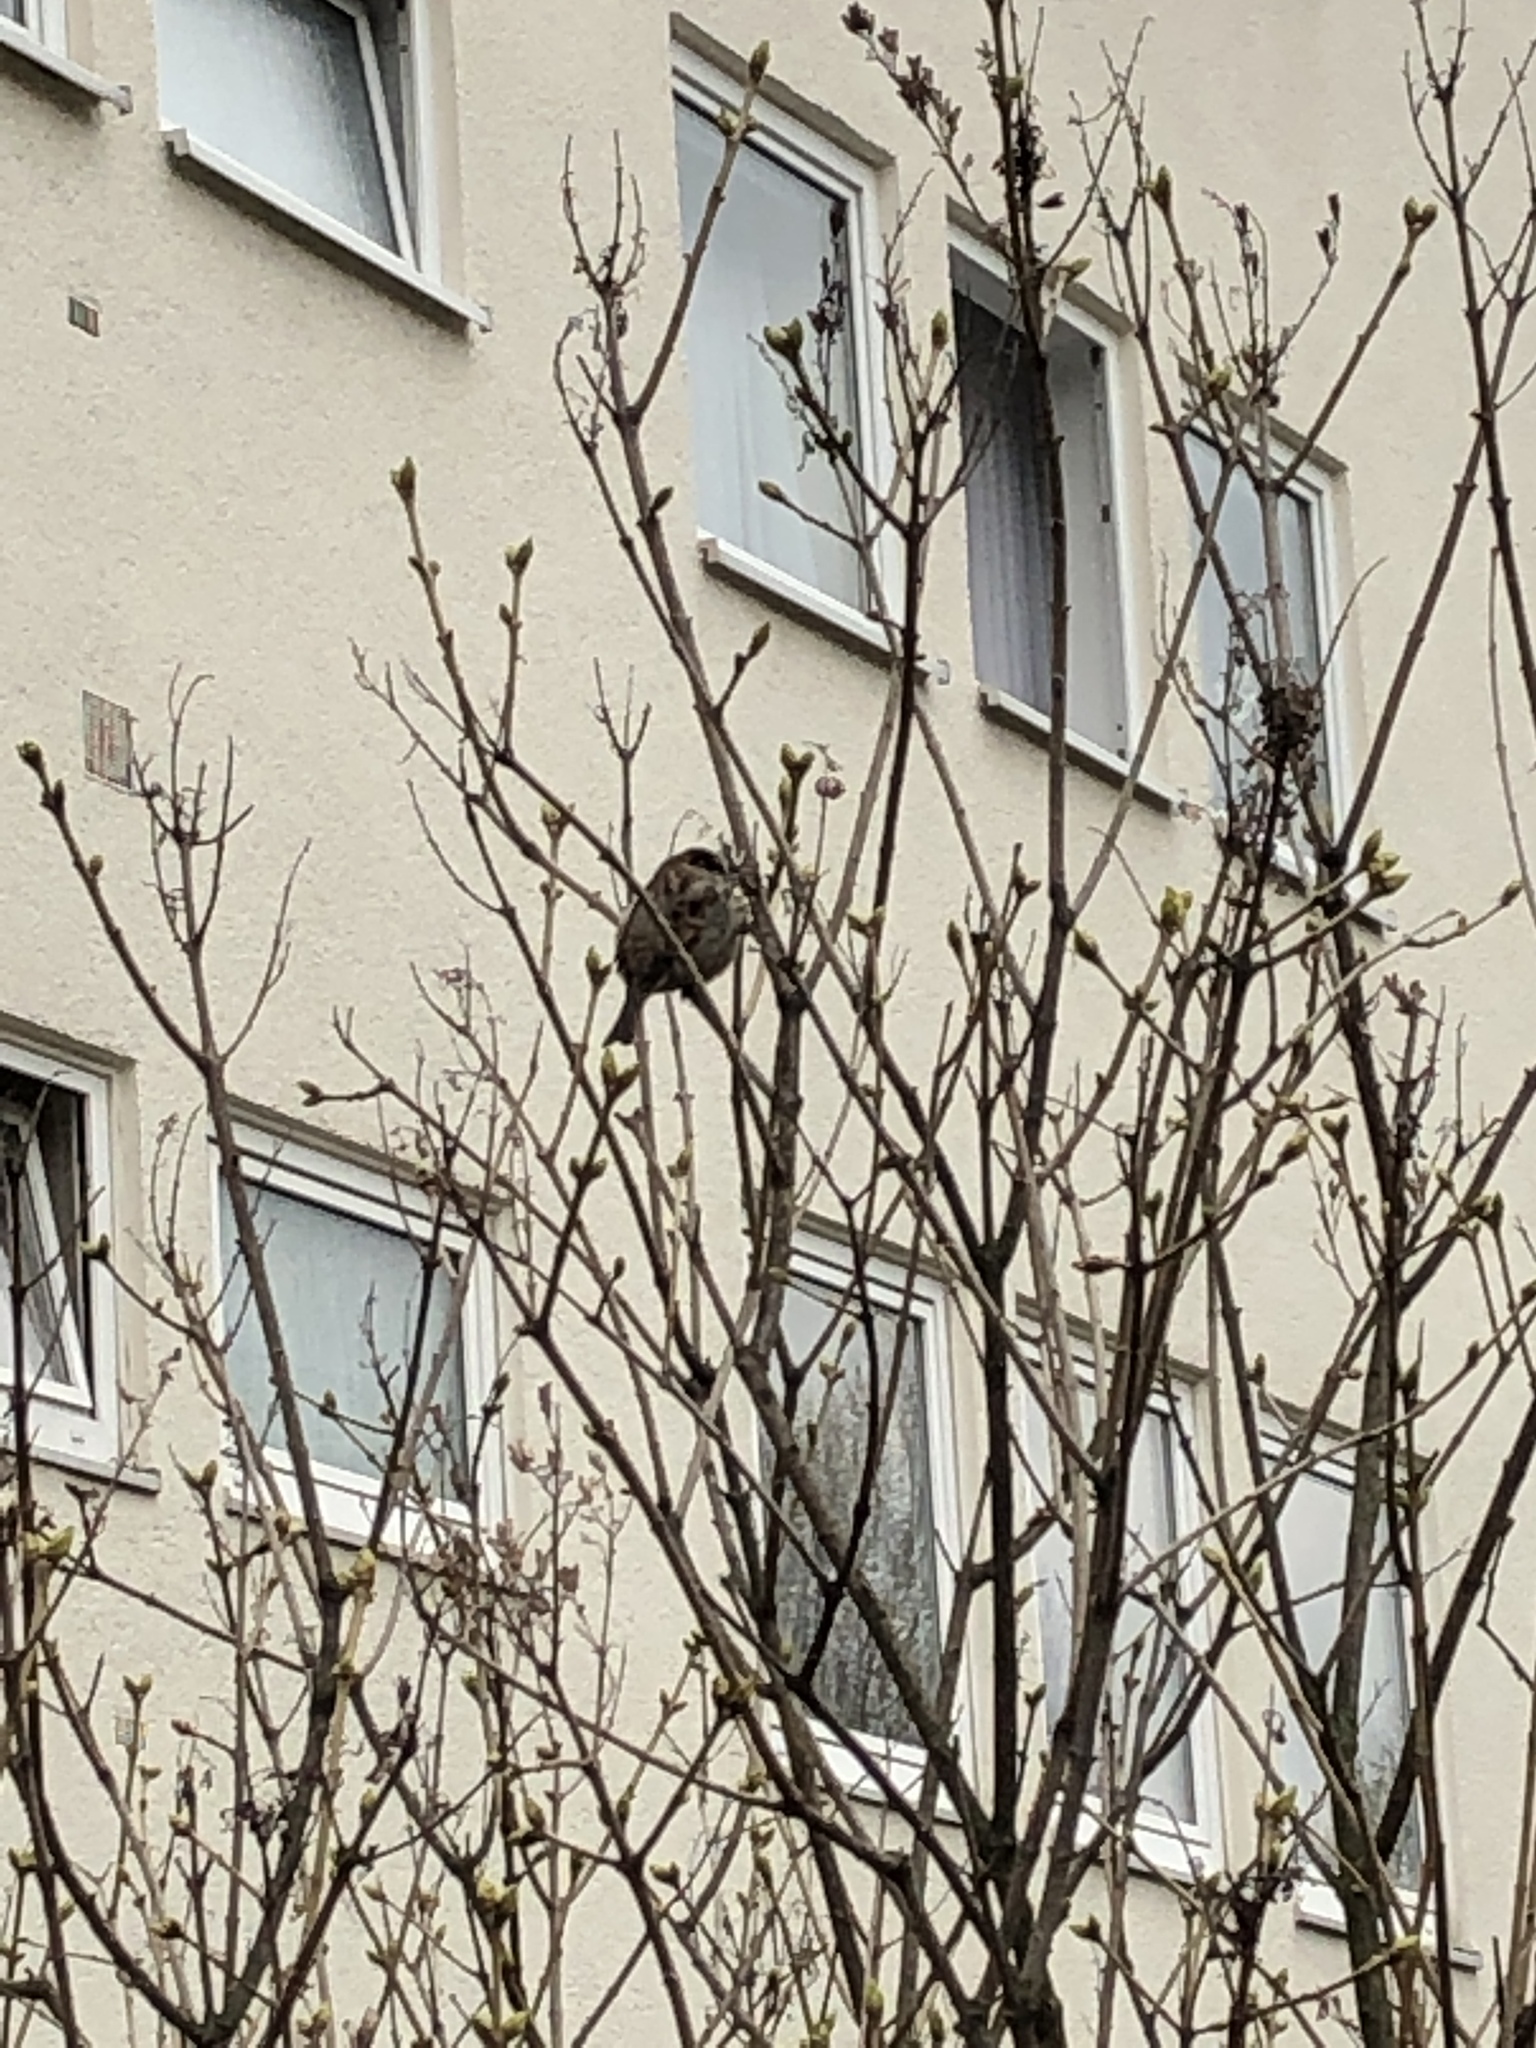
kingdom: Animalia
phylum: Chordata
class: Aves
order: Passeriformes
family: Passeridae
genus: Passer
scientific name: Passer domesticus
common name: House sparrow
